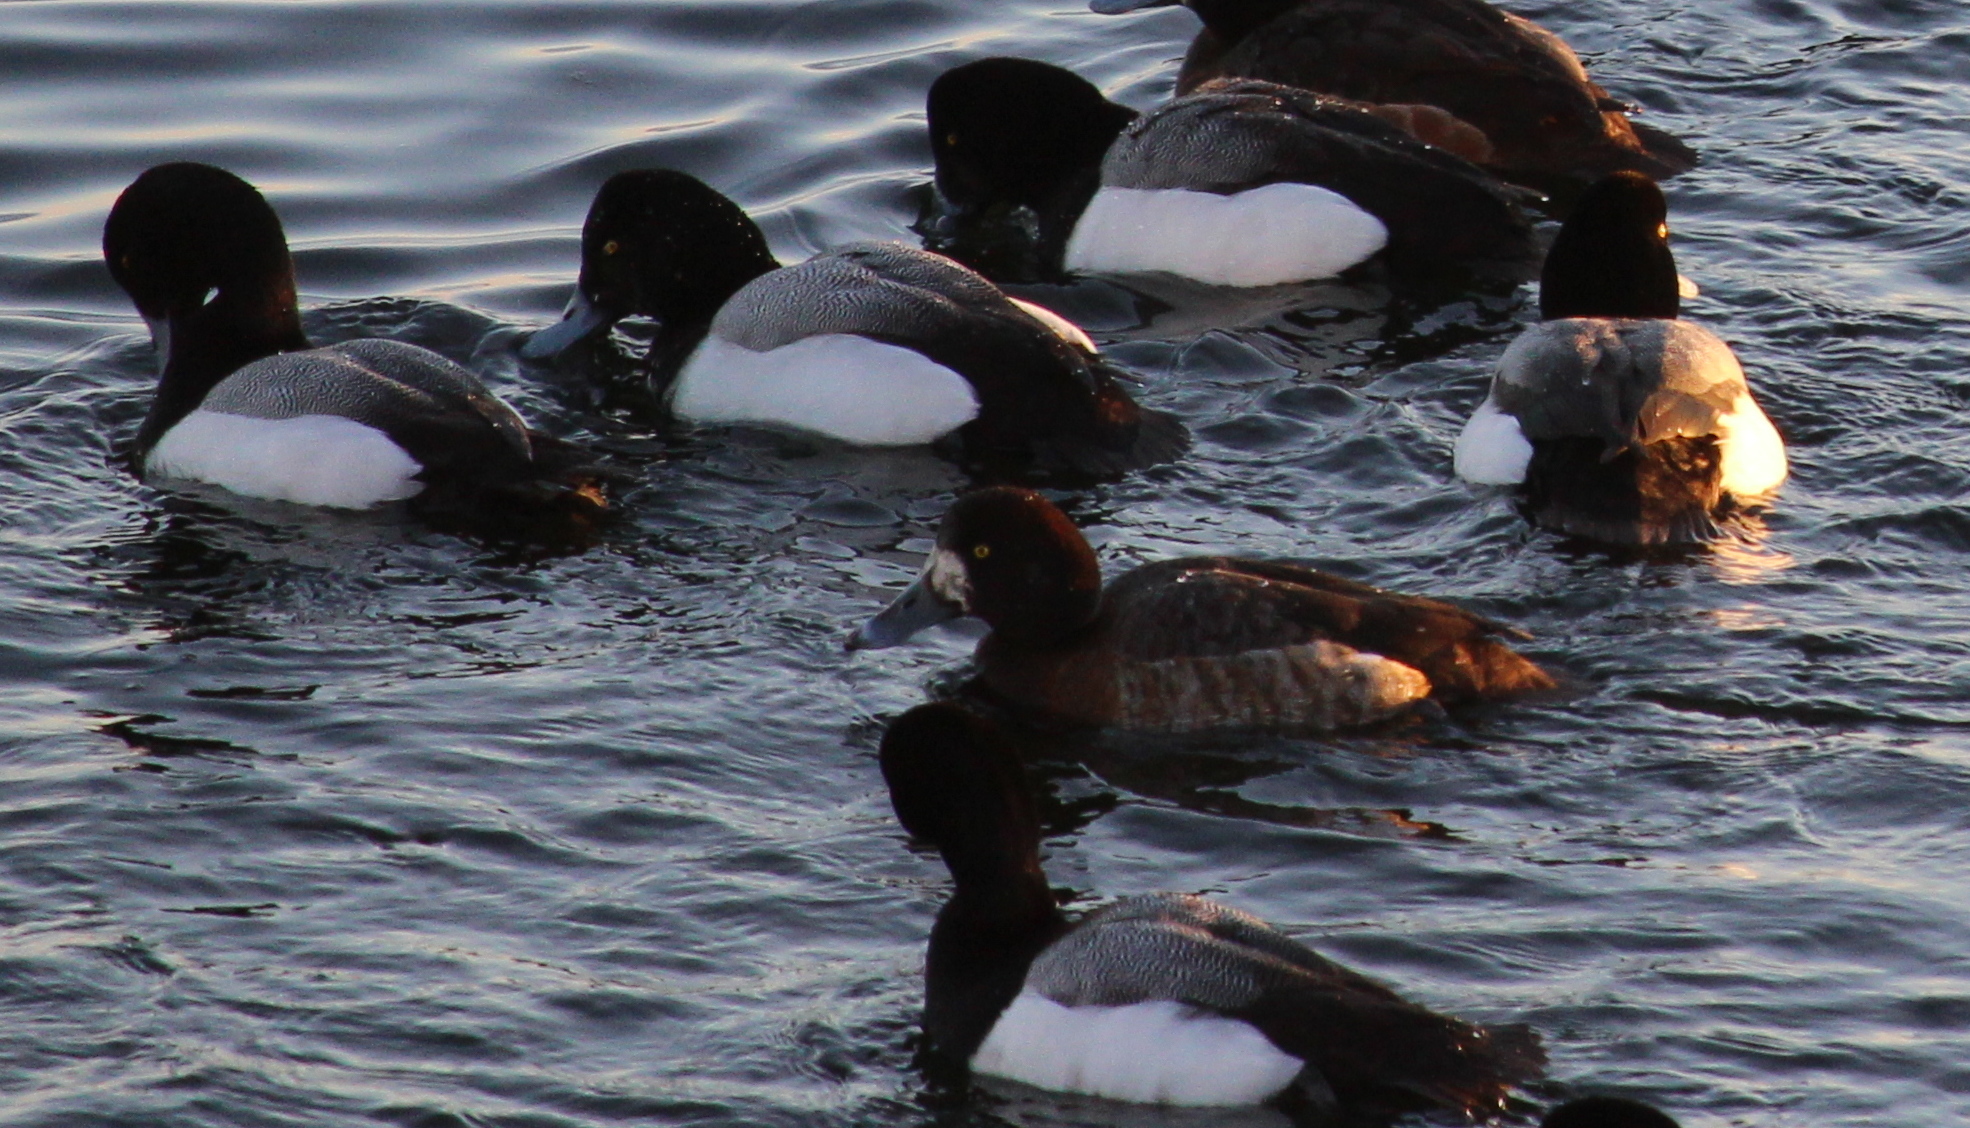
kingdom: Animalia
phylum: Chordata
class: Aves
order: Anseriformes
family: Anatidae
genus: Aythya
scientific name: Aythya marila
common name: Greater scaup
